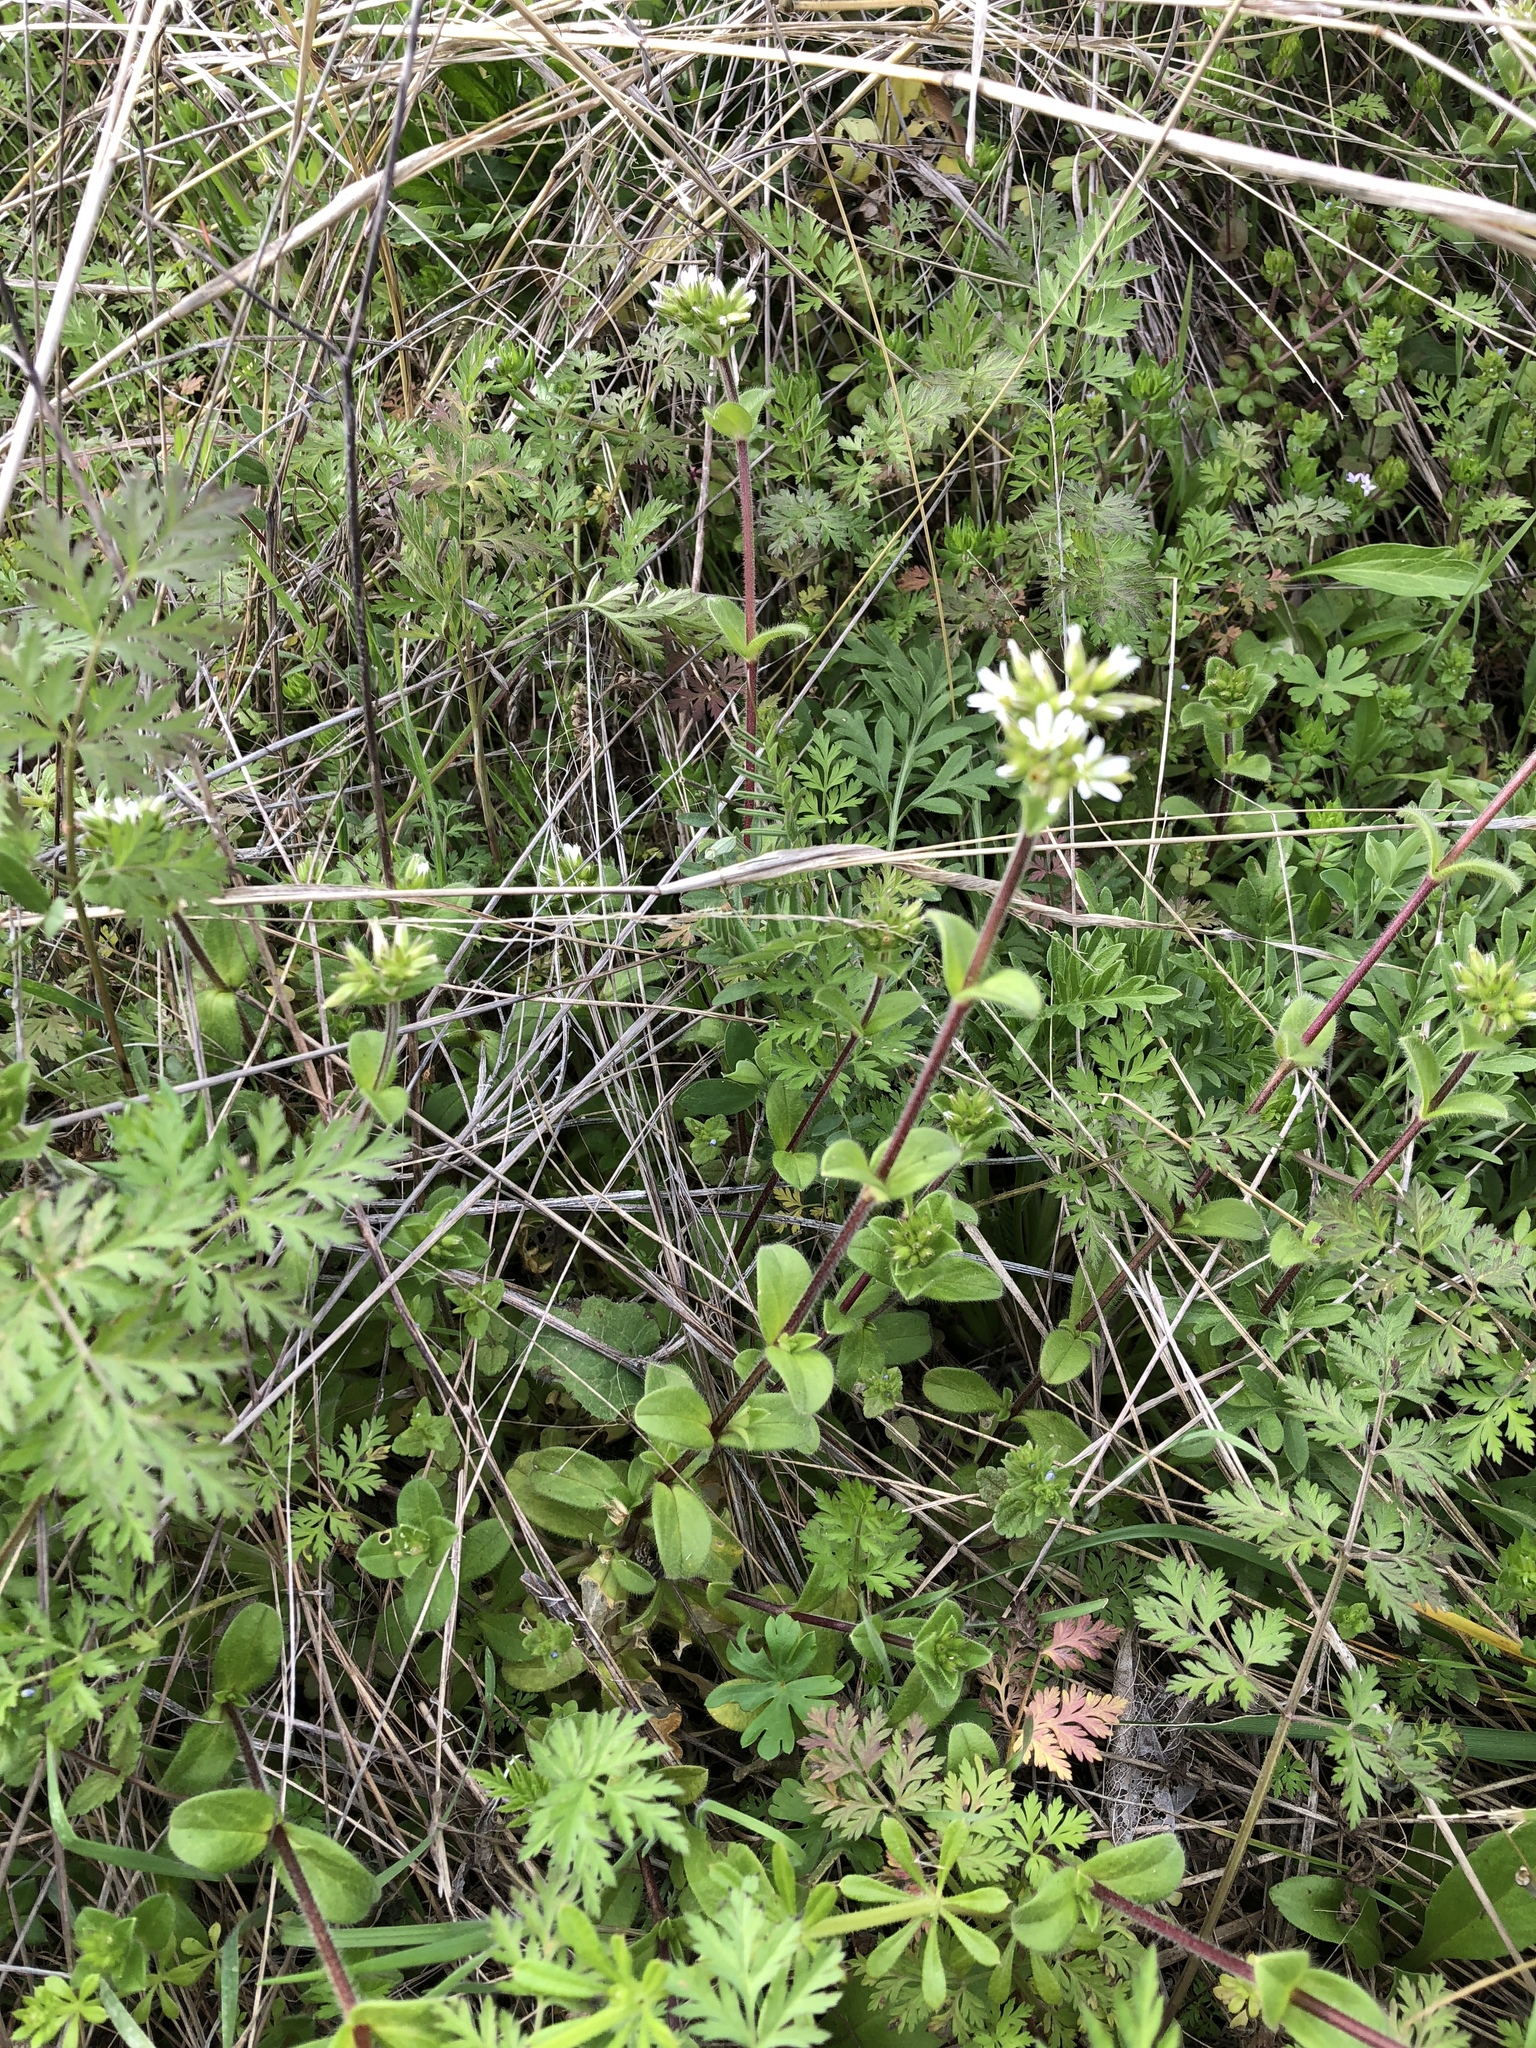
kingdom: Plantae
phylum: Tracheophyta
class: Magnoliopsida
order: Caryophyllales
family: Caryophyllaceae
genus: Cerastium
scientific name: Cerastium glomeratum
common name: Sticky chickweed
